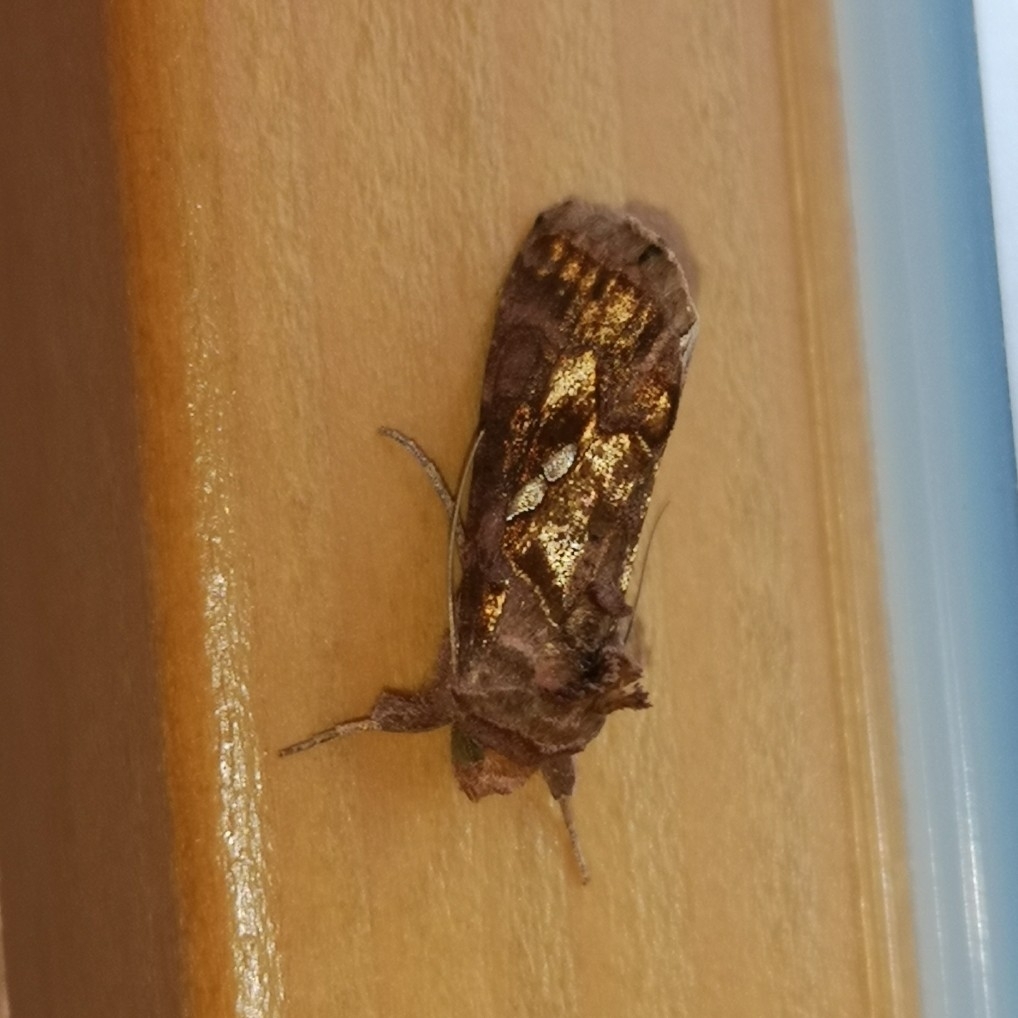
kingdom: Animalia
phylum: Arthropoda
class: Insecta
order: Lepidoptera
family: Noctuidae
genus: Chrysodeixis
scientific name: Chrysodeixis chalcites
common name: Golden twin-spot
